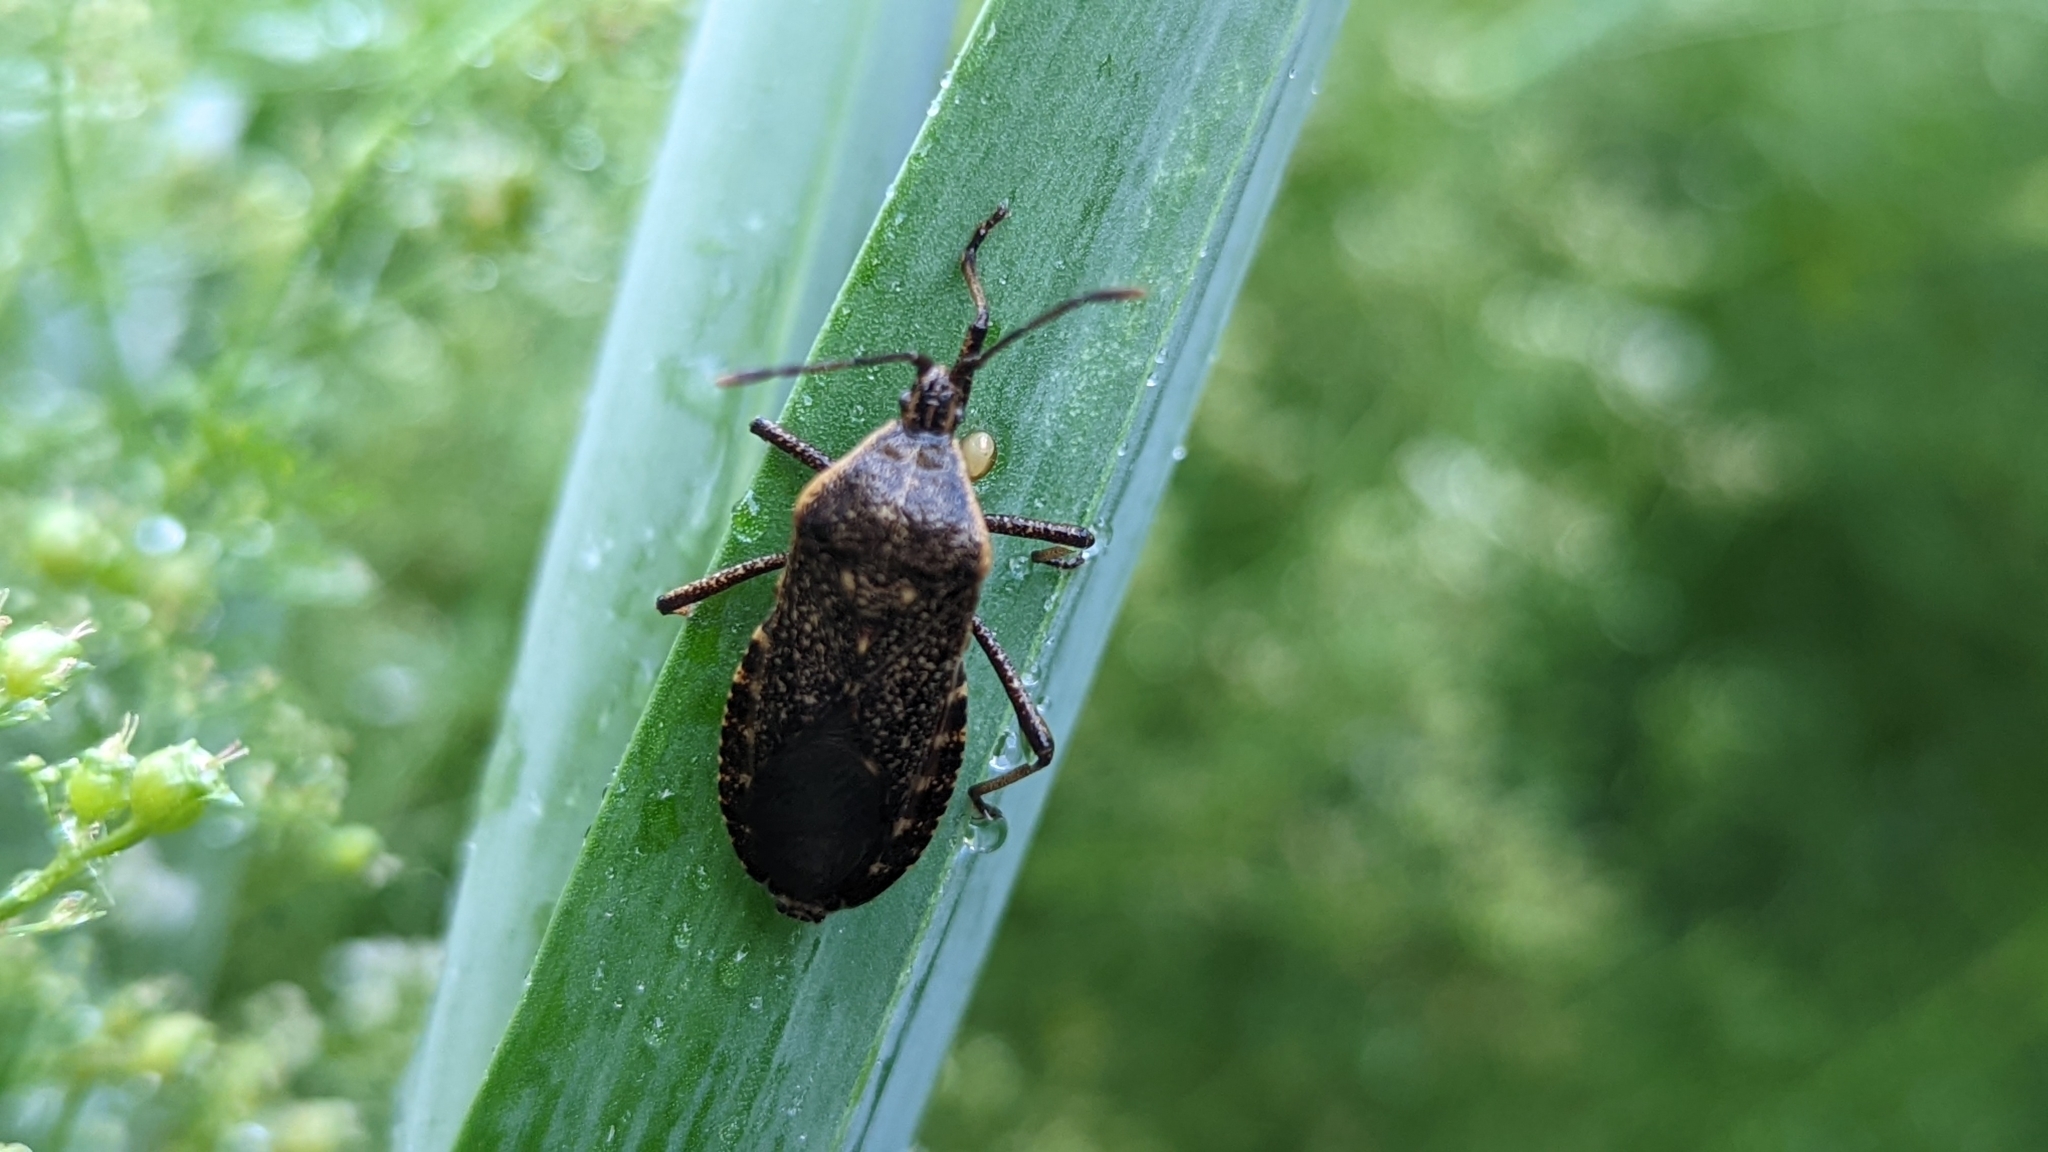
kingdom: Animalia
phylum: Arthropoda
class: Insecta
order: Hemiptera
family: Coreidae
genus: Anasa
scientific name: Anasa tristis
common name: Squash bug
